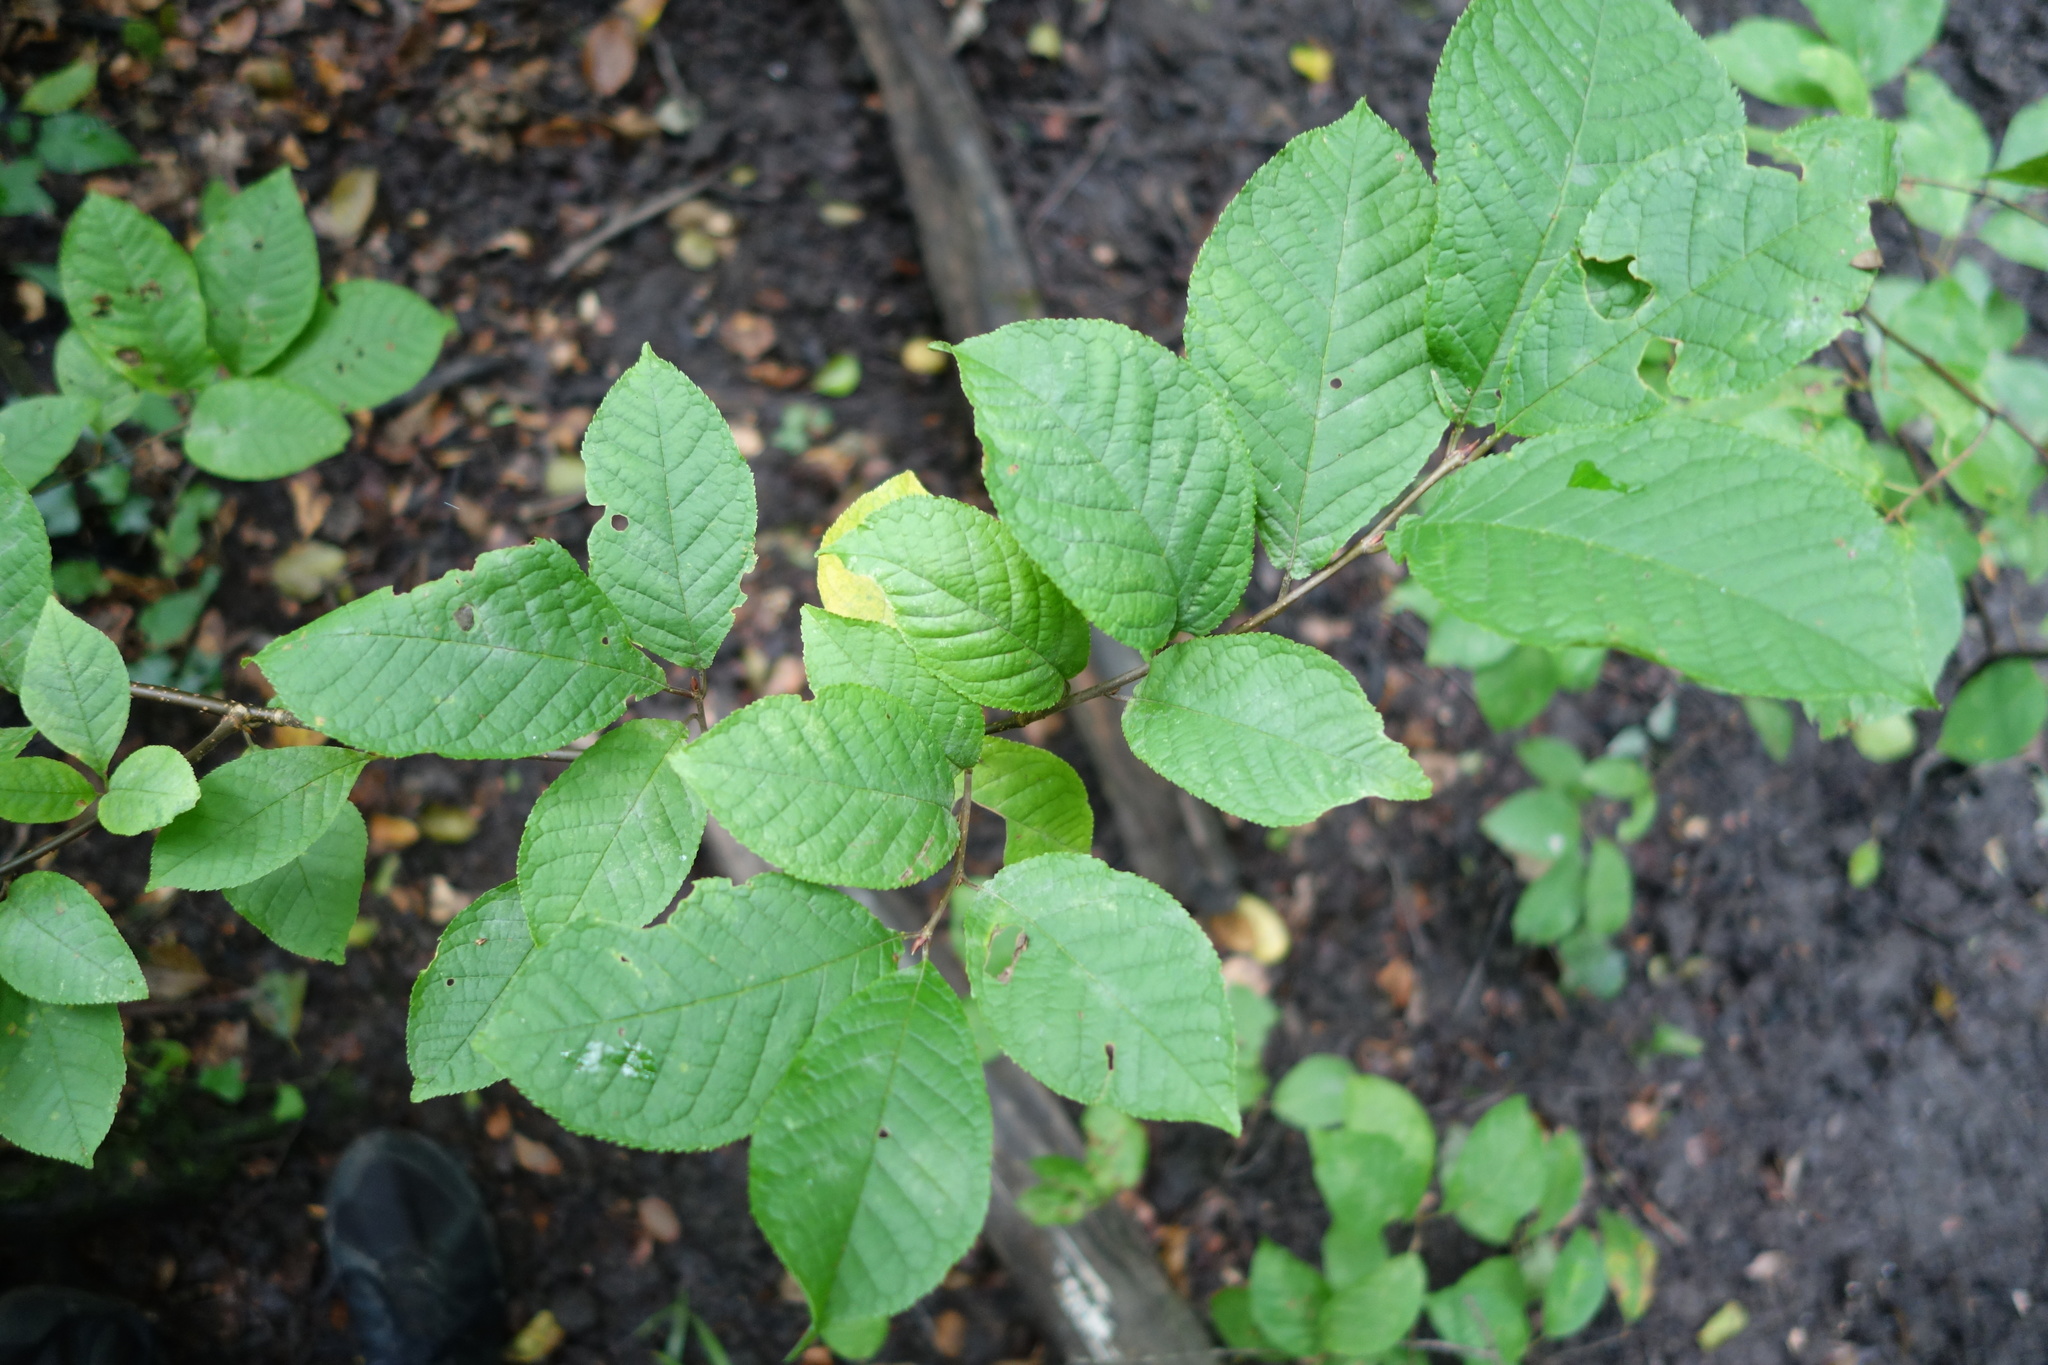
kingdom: Plantae
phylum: Tracheophyta
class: Magnoliopsida
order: Rosales
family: Rosaceae
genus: Prunus
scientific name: Prunus padus
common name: Bird cherry
